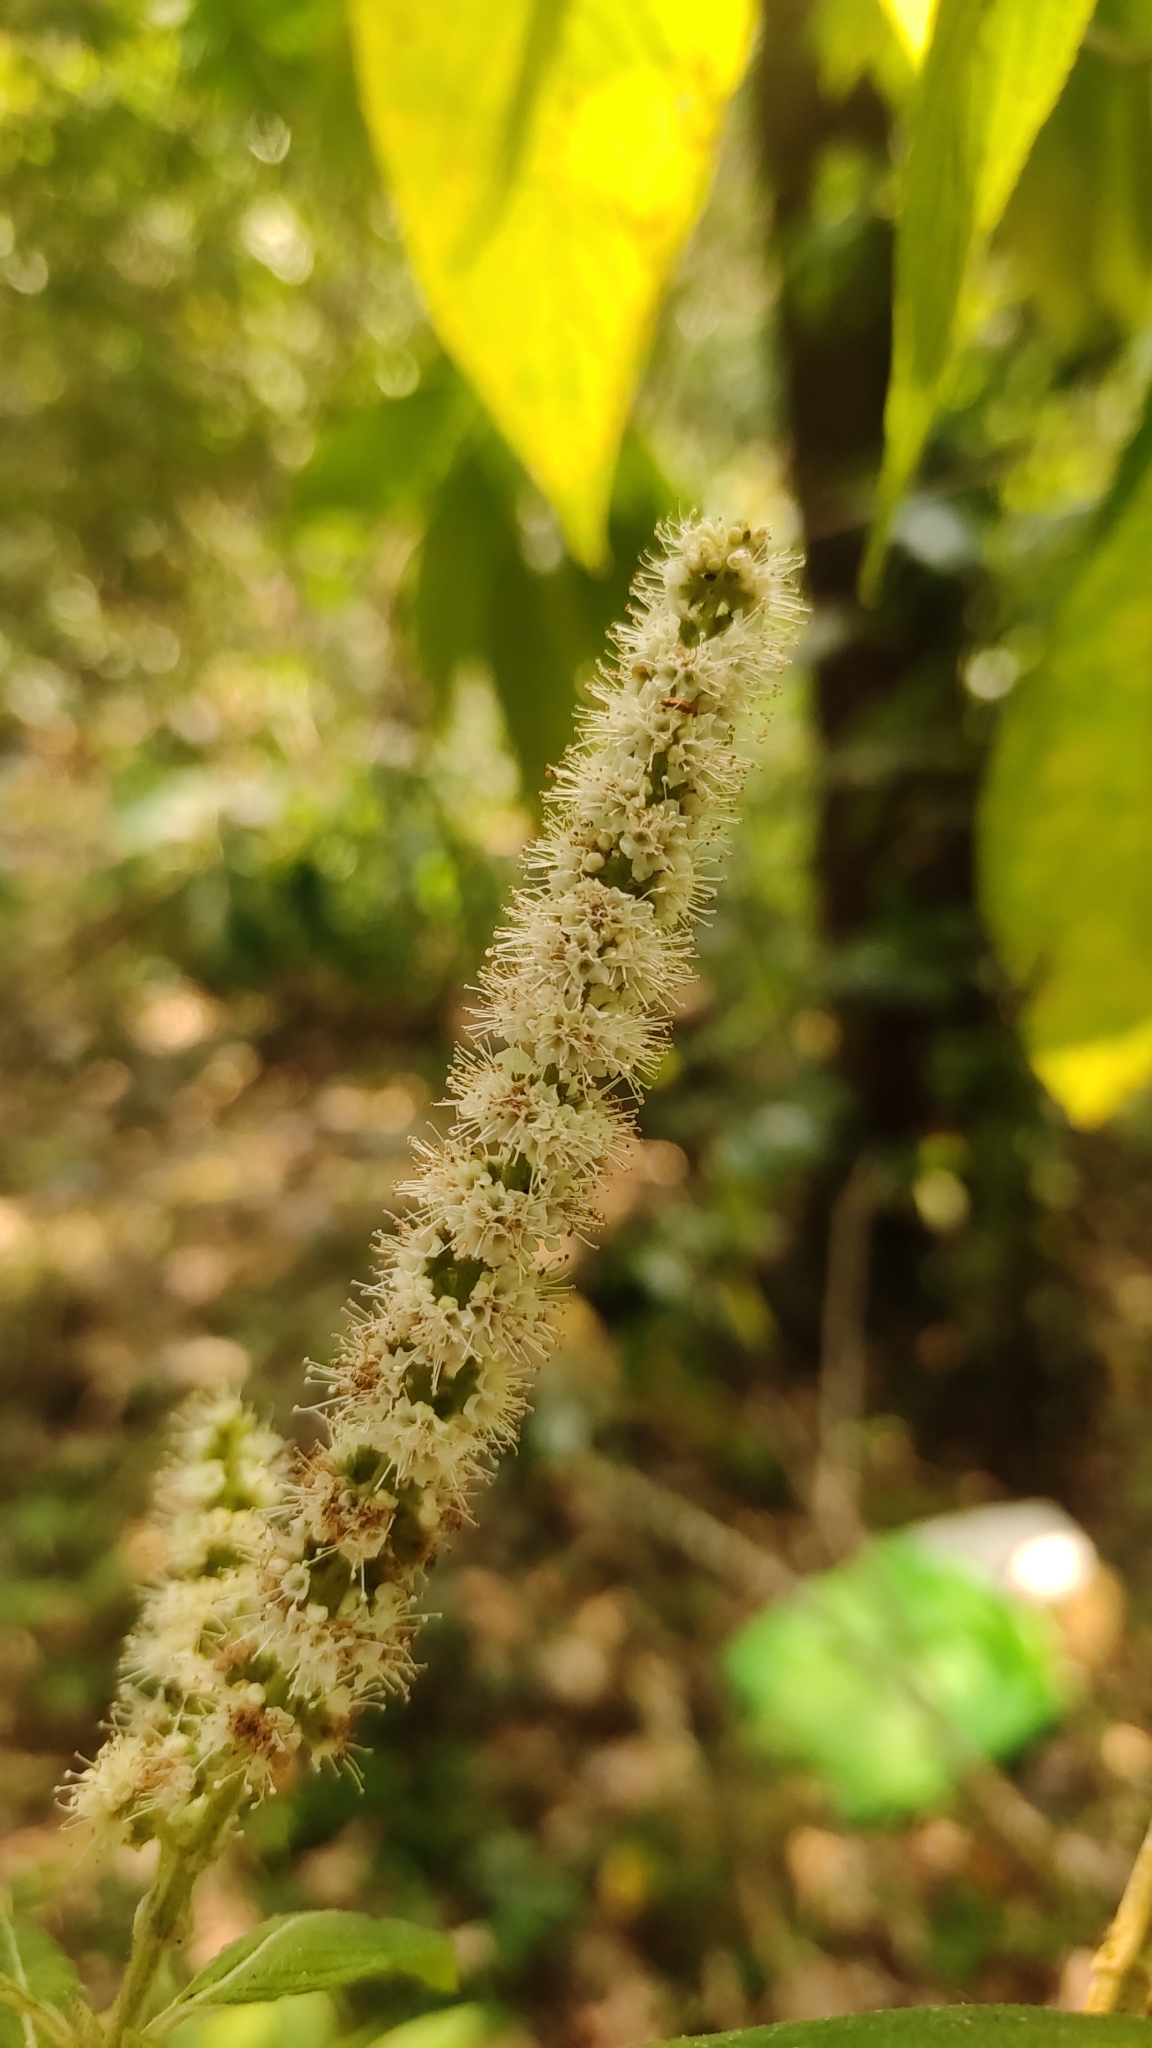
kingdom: Plantae
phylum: Tracheophyta
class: Magnoliopsida
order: Lamiales
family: Lamiaceae
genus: Colebrookea
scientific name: Colebrookea oppositifolia
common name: Indian squirrel tail
